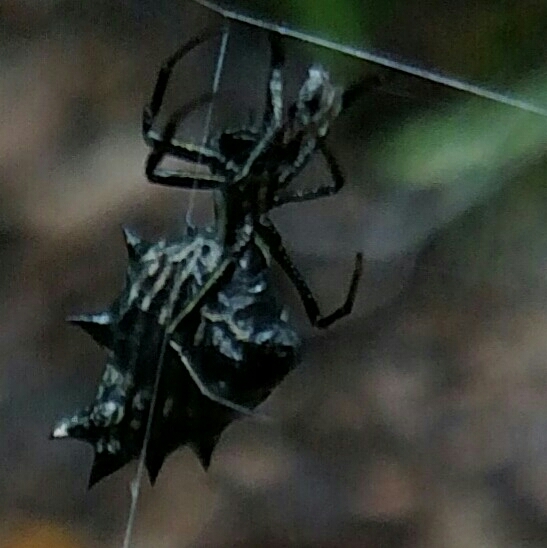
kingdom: Animalia
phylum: Arthropoda
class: Arachnida
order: Araneae
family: Araneidae
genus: Micrathena
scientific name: Micrathena gracilis
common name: Orb weavers
